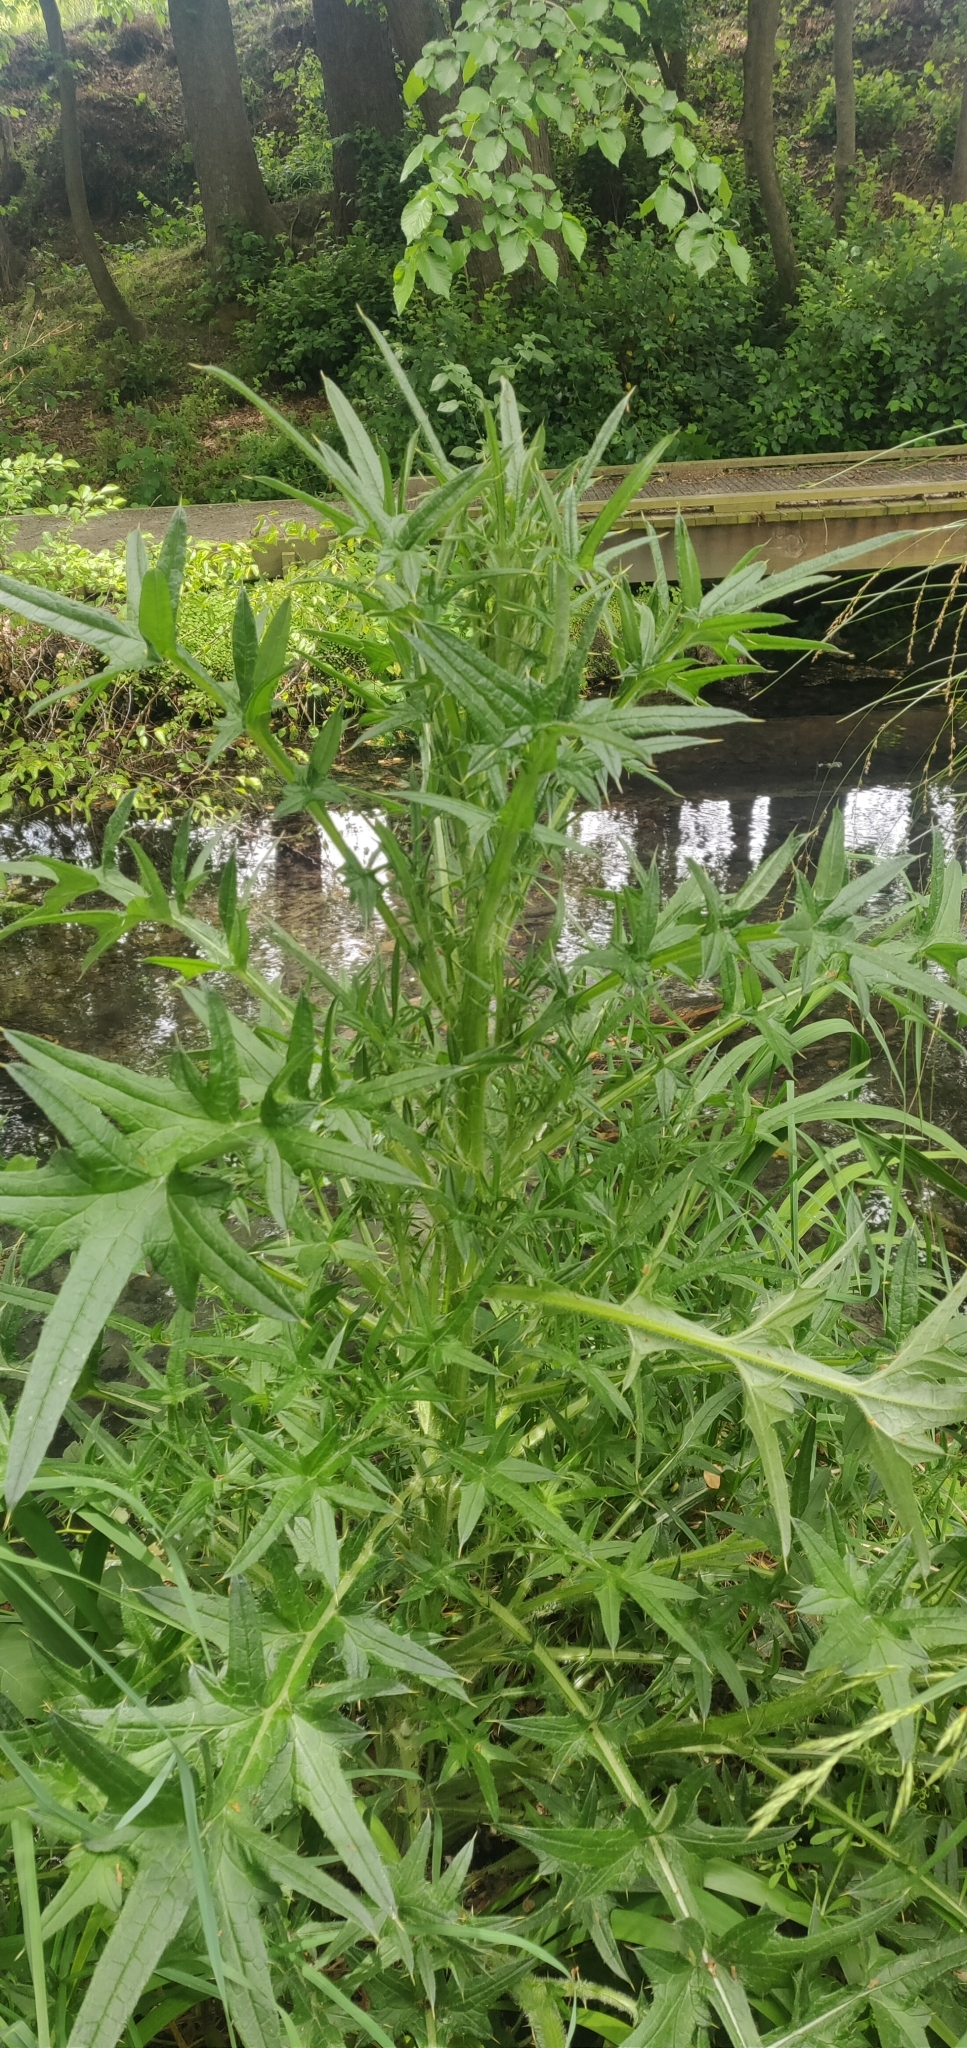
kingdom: Plantae
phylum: Tracheophyta
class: Magnoliopsida
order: Asterales
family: Asteraceae
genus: Cirsium
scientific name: Cirsium vulgare
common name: Bull thistle
